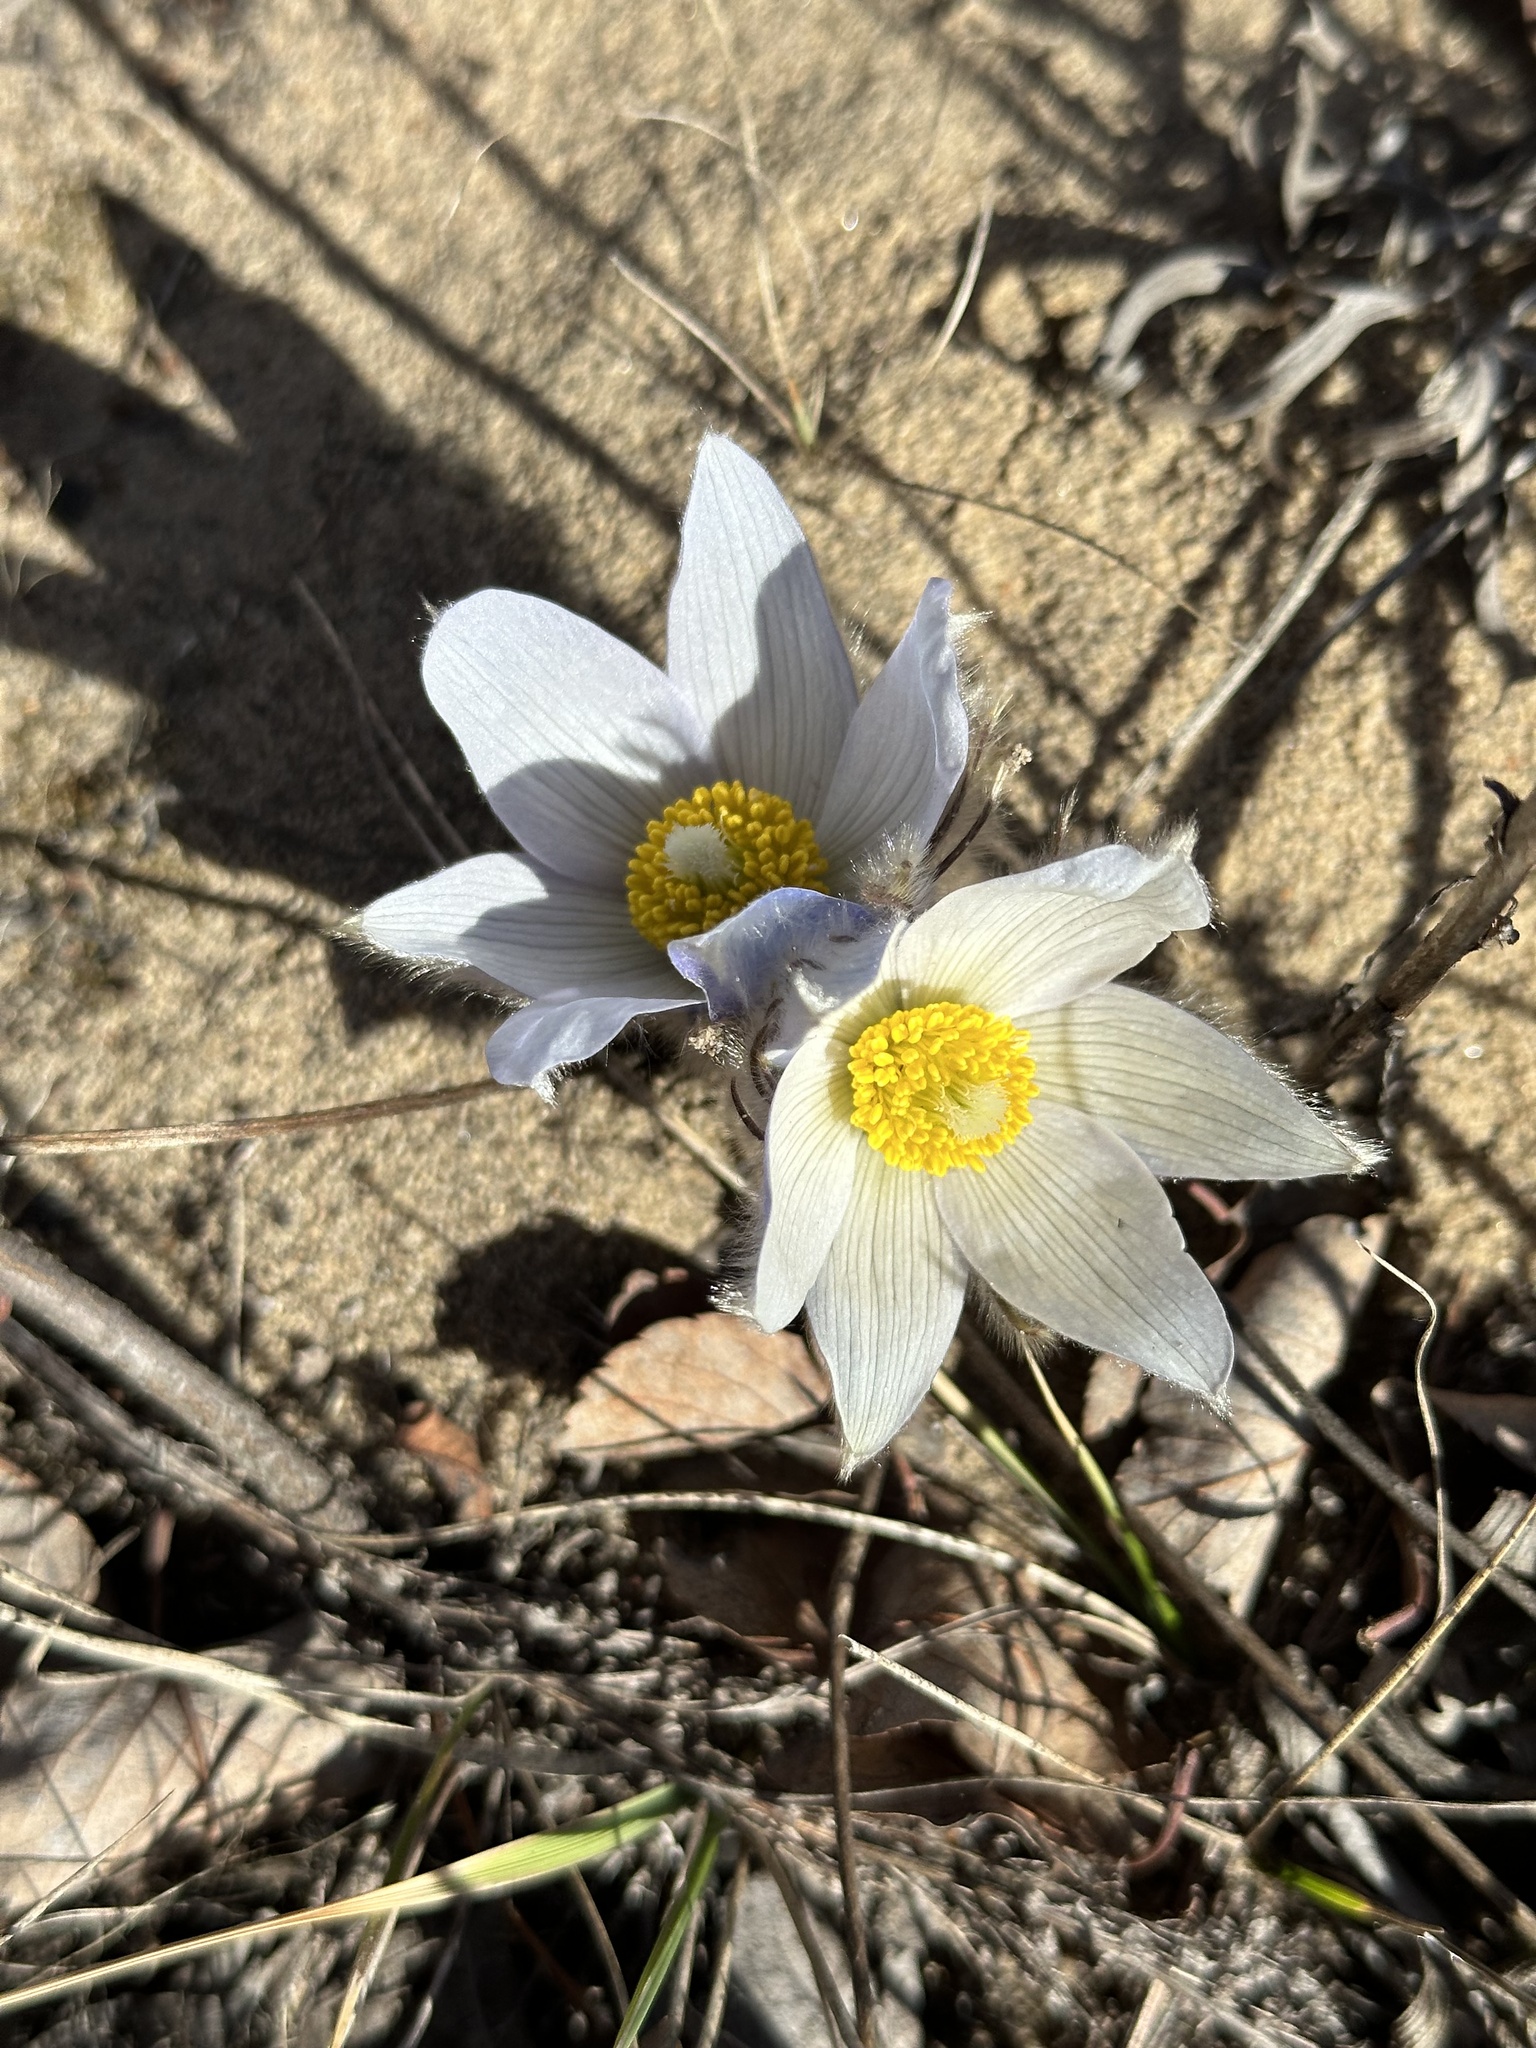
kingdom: Plantae
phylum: Tracheophyta
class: Magnoliopsida
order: Ranunculales
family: Ranunculaceae
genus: Pulsatilla
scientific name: Pulsatilla nuttalliana
